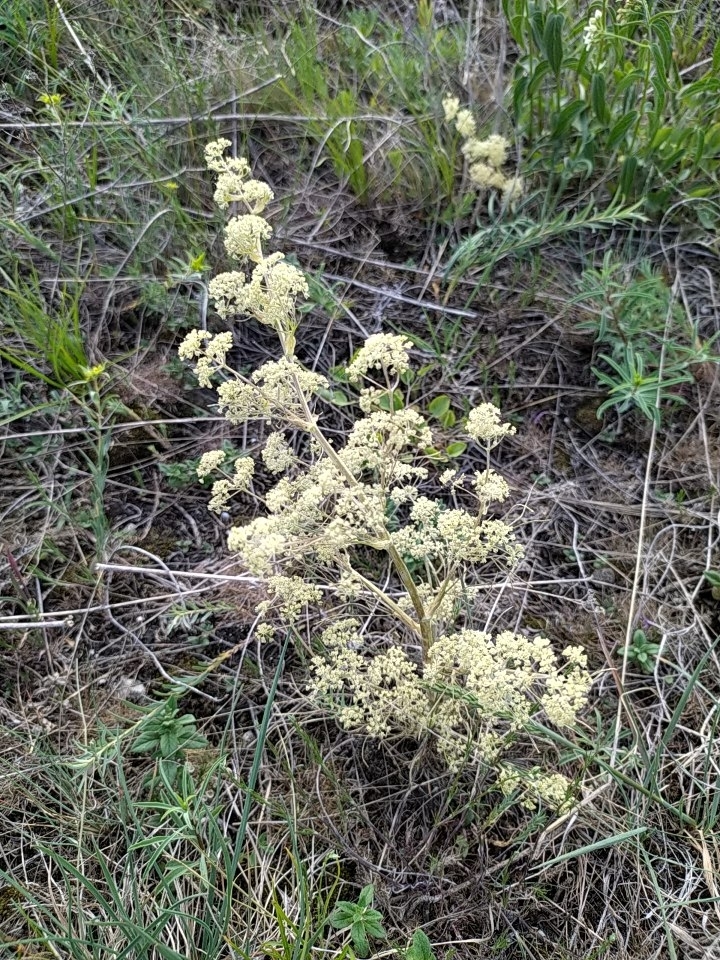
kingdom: Plantae
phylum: Tracheophyta
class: Magnoliopsida
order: Apiales
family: Apiaceae
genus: Trinia
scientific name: Trinia multicaulis
